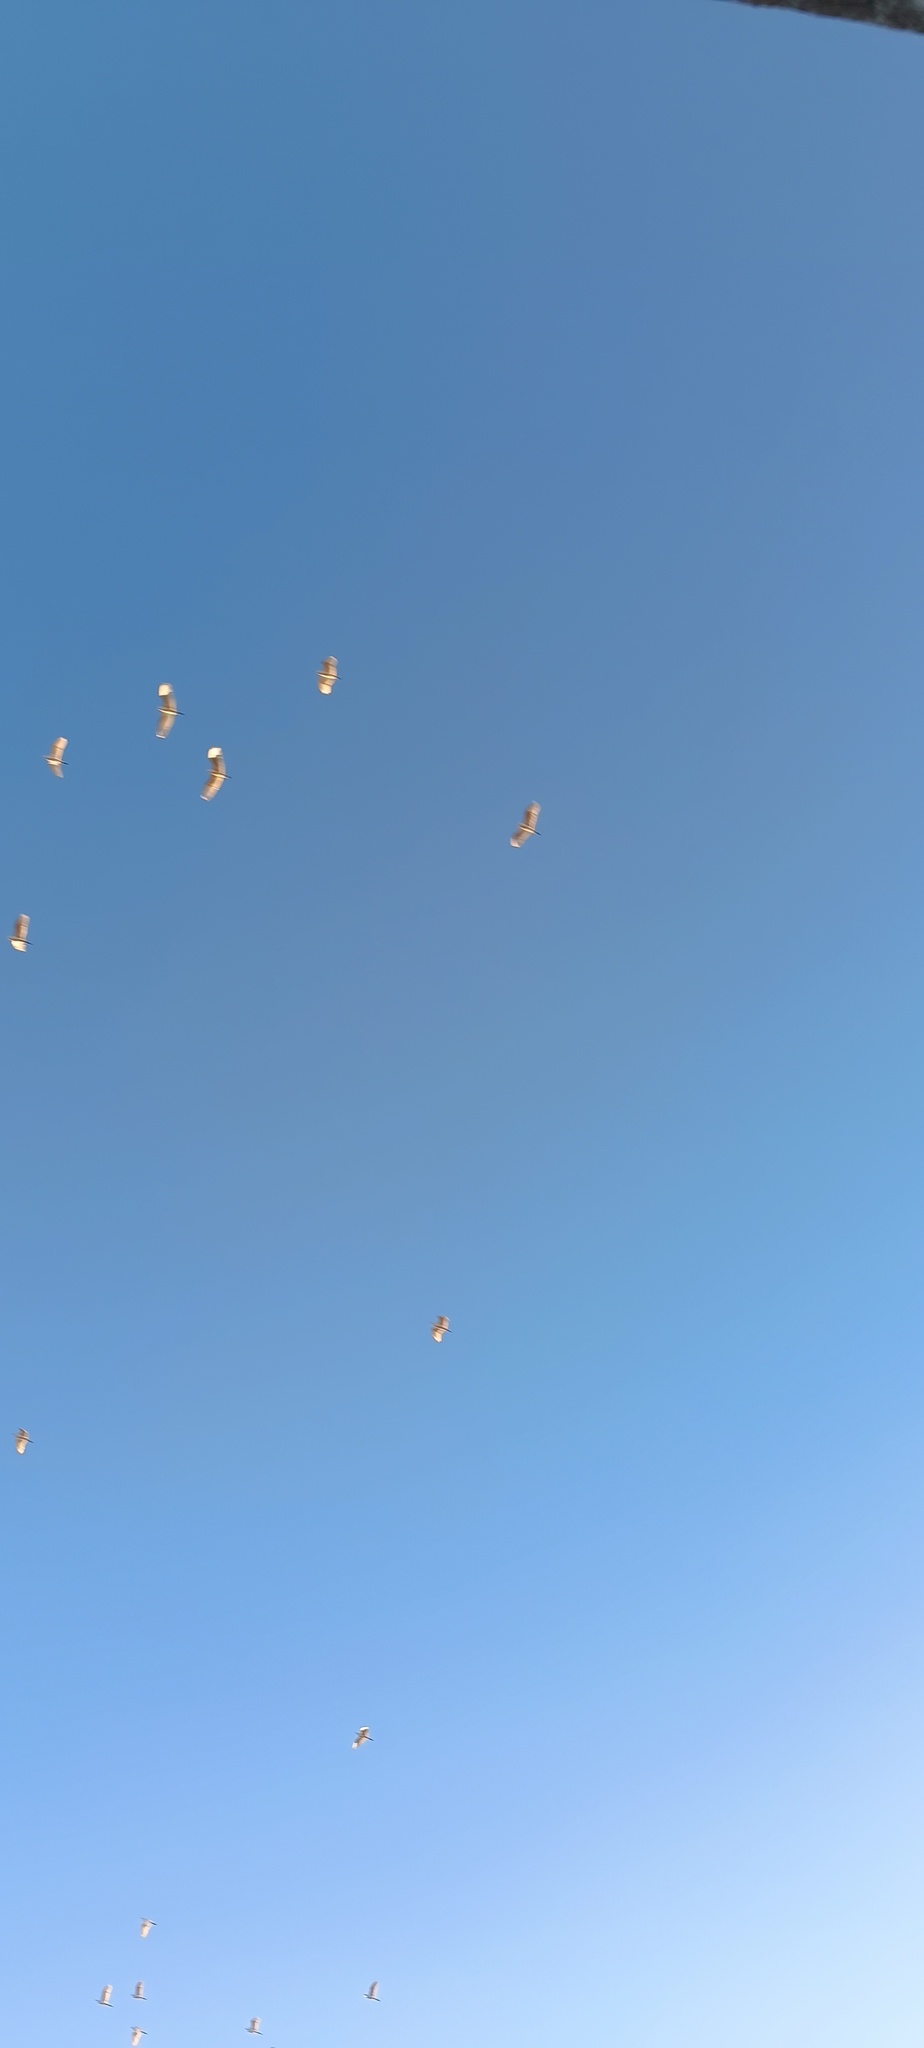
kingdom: Animalia
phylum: Chordata
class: Aves
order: Pelecaniformes
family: Ardeidae
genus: Bubulcus
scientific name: Bubulcus ibis
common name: Cattle egret
